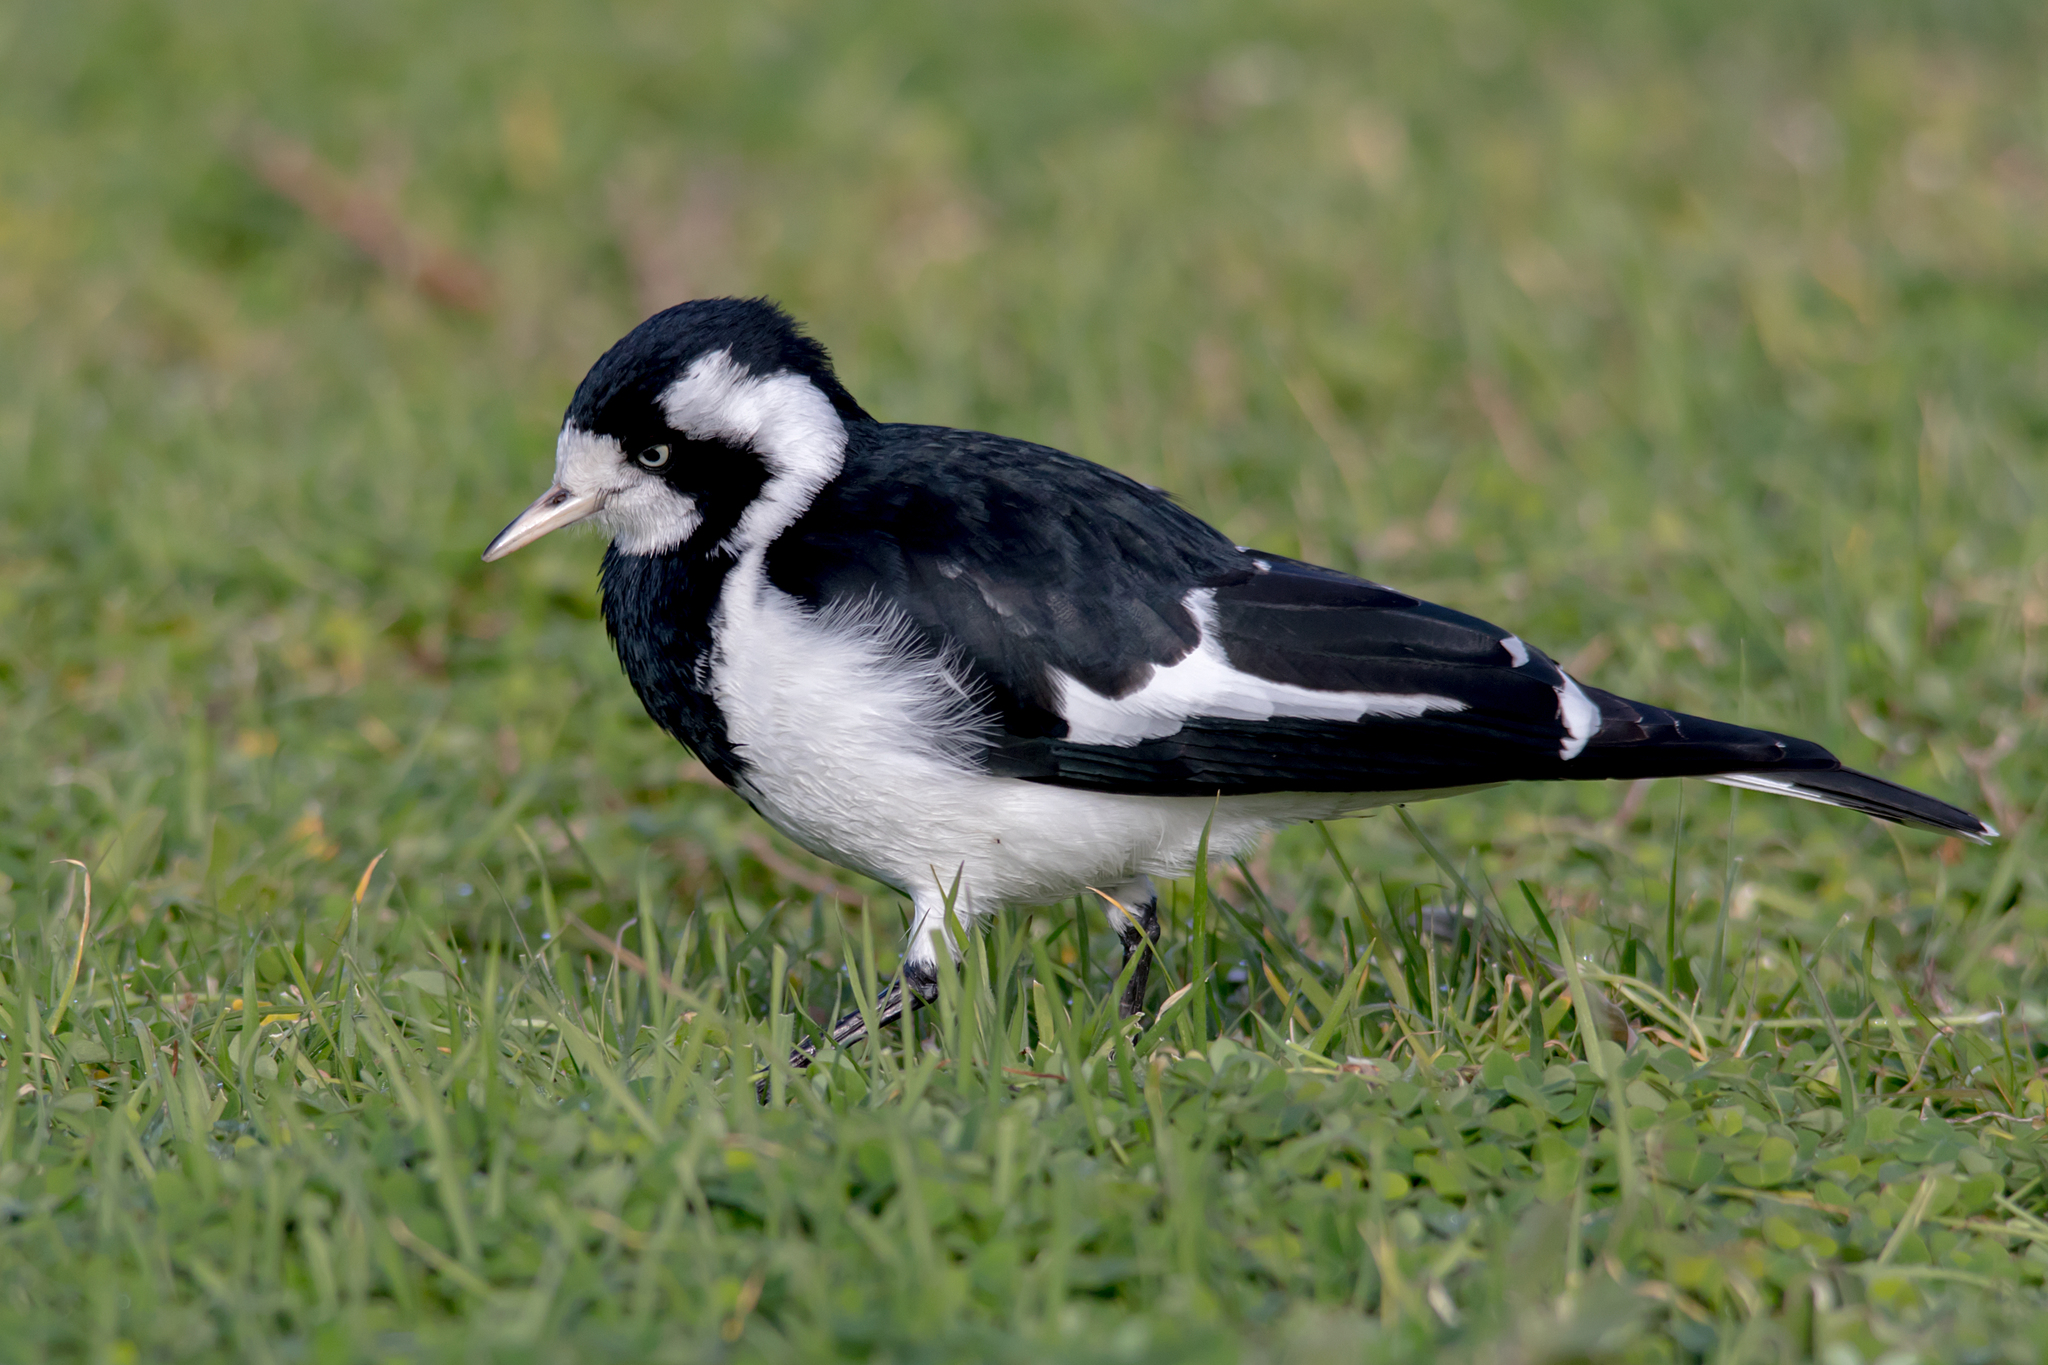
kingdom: Animalia
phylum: Chordata
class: Aves
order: Passeriformes
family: Monarchidae
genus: Grallina
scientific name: Grallina cyanoleuca
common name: Magpie-lark
